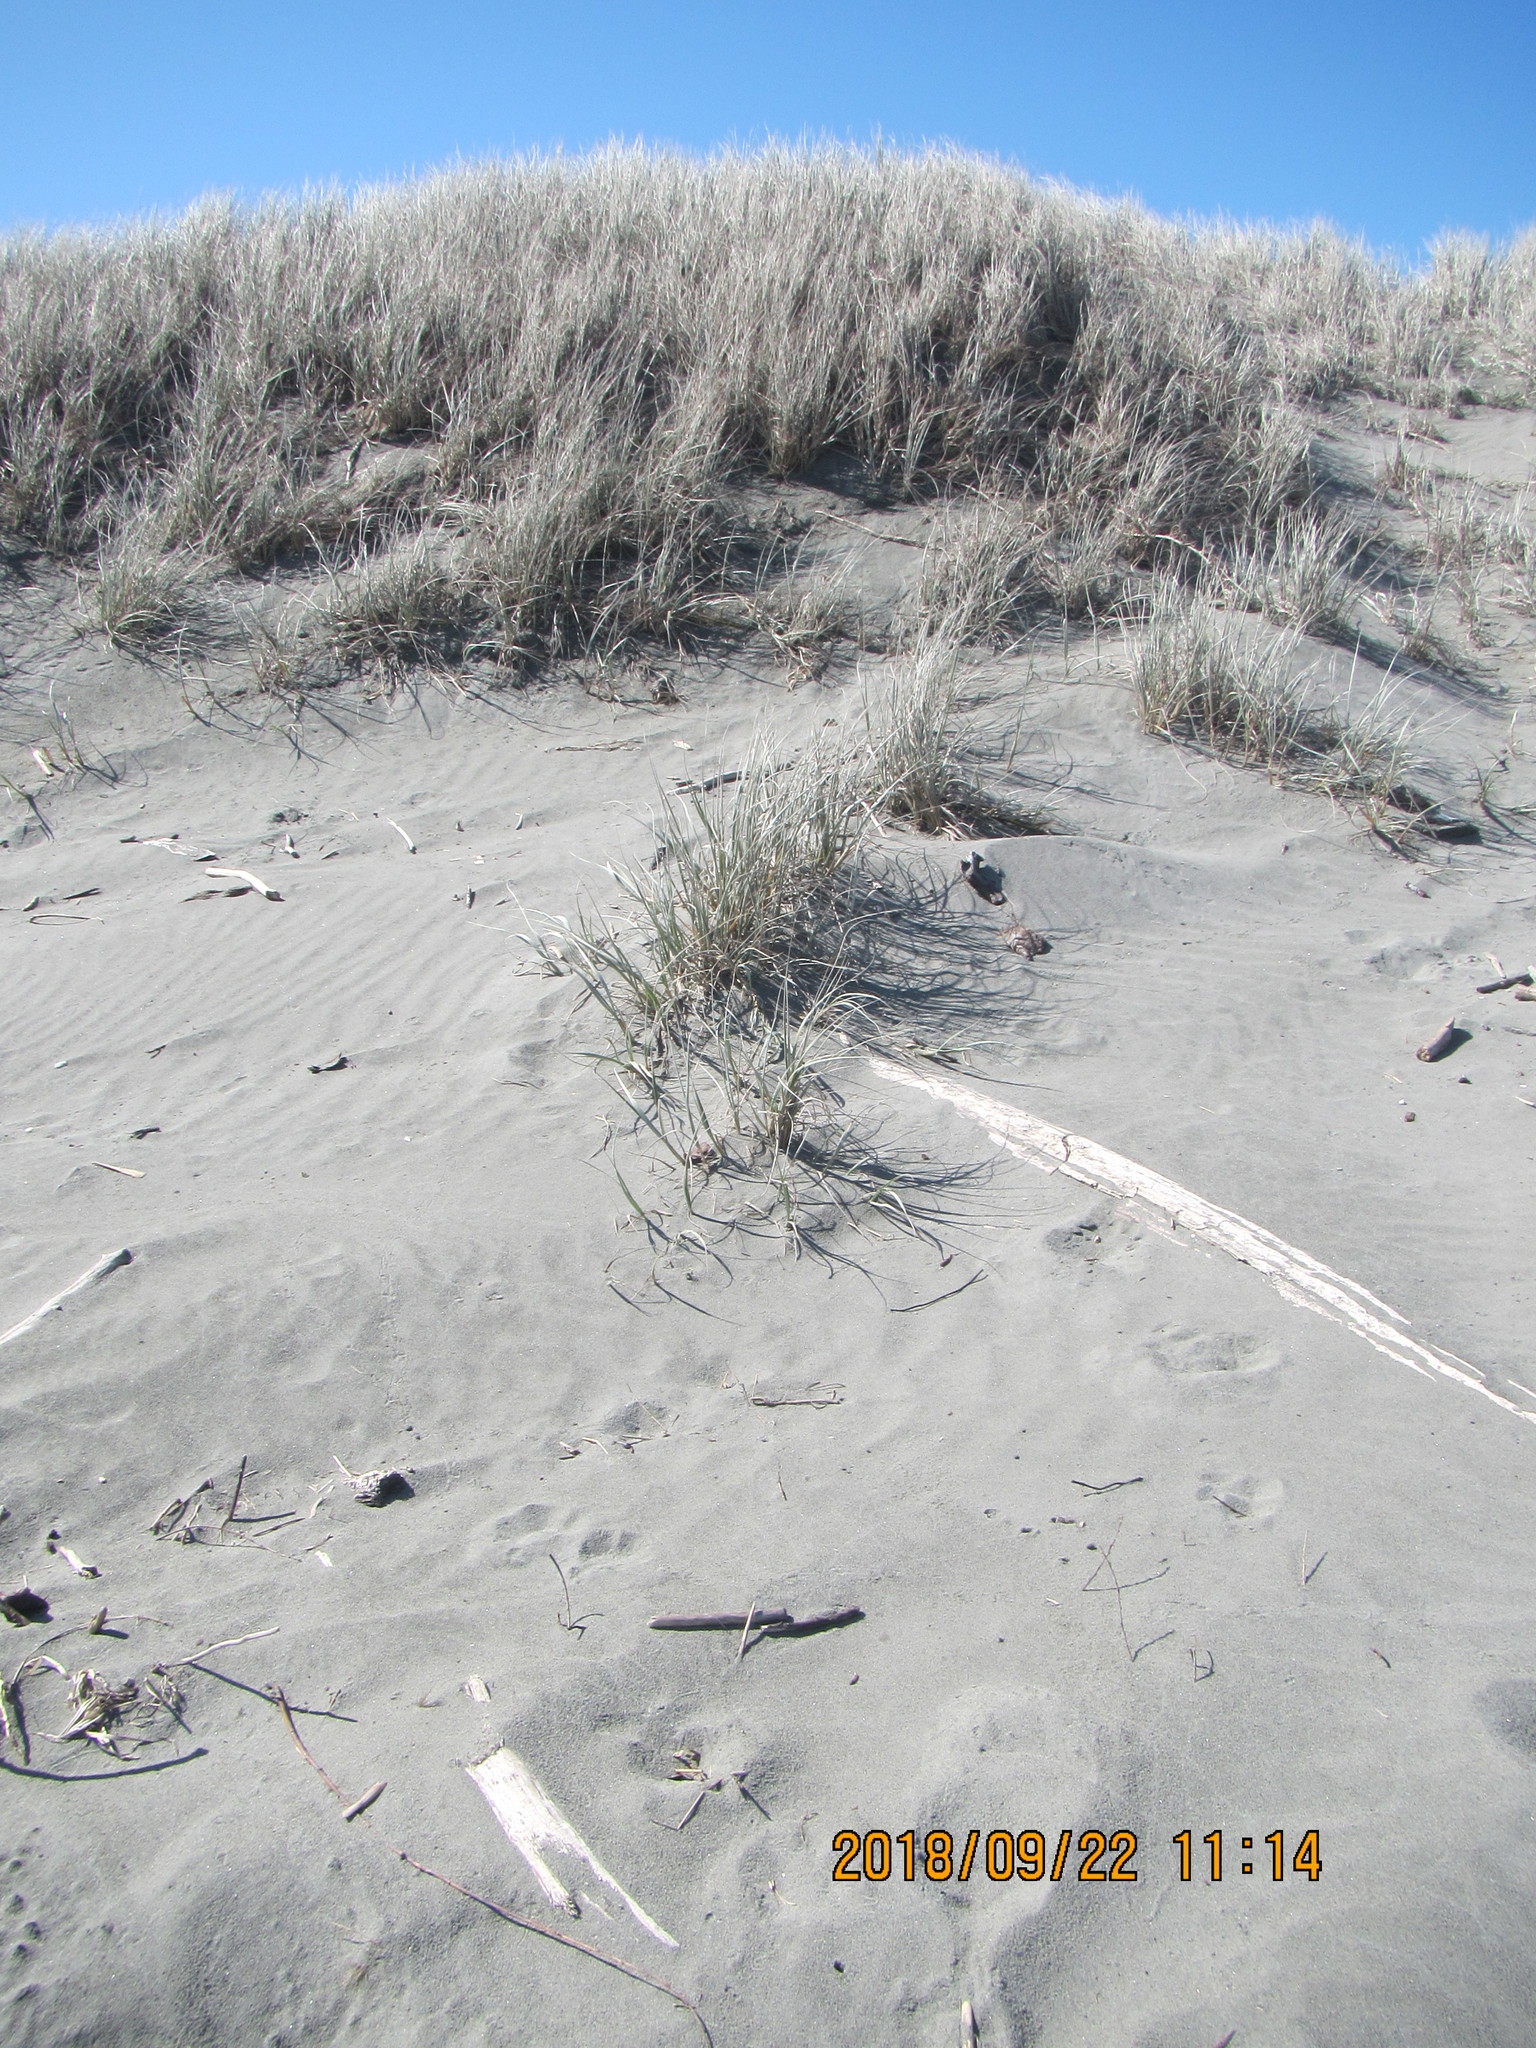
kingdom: Plantae
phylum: Tracheophyta
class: Liliopsida
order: Poales
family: Poaceae
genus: Spinifex
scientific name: Spinifex sericeus
